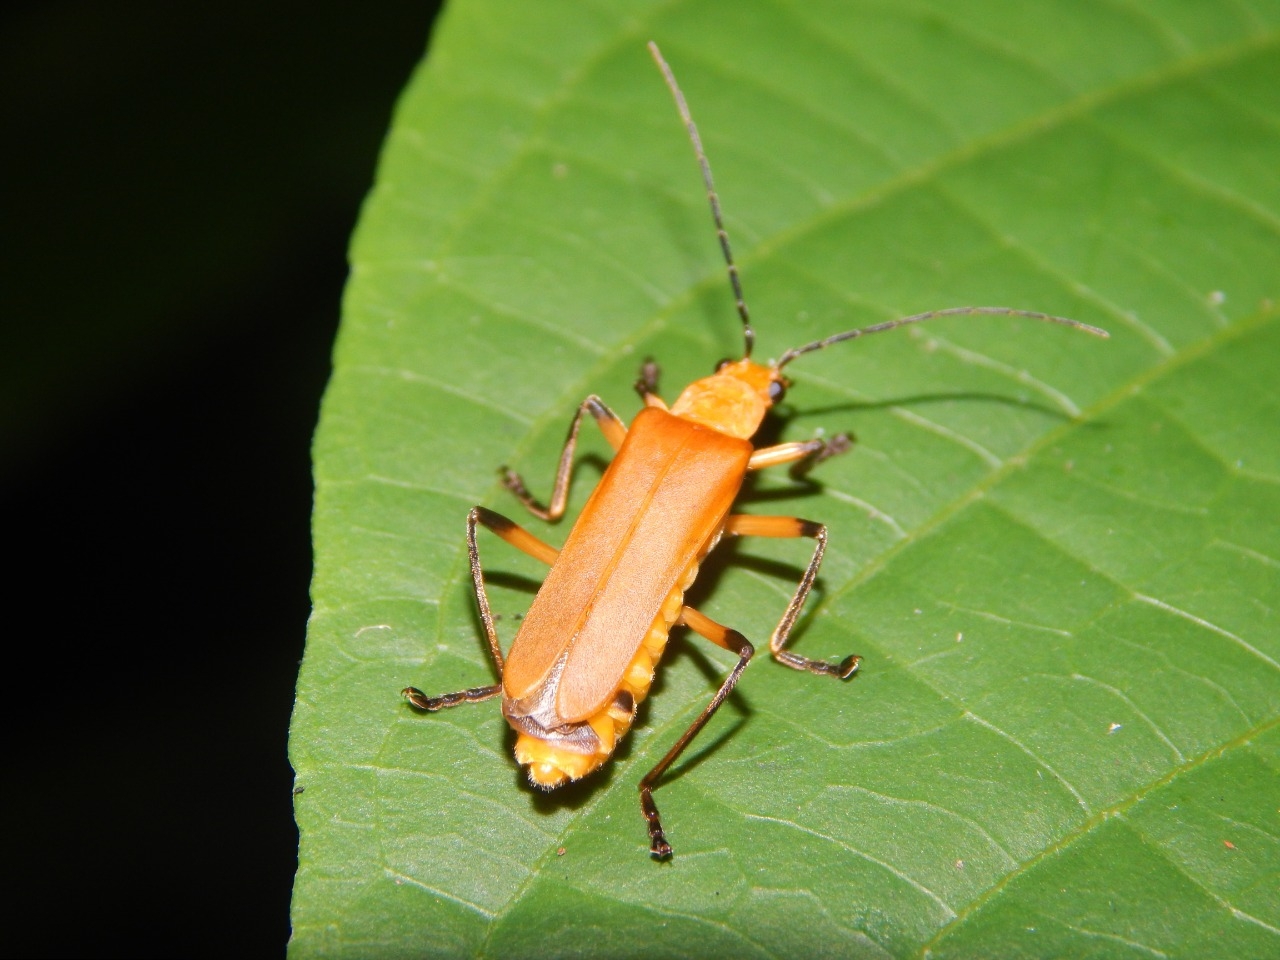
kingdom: Animalia
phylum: Arthropoda
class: Insecta
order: Coleoptera
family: Cantharidae
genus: Chauliognathus
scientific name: Chauliognathus
